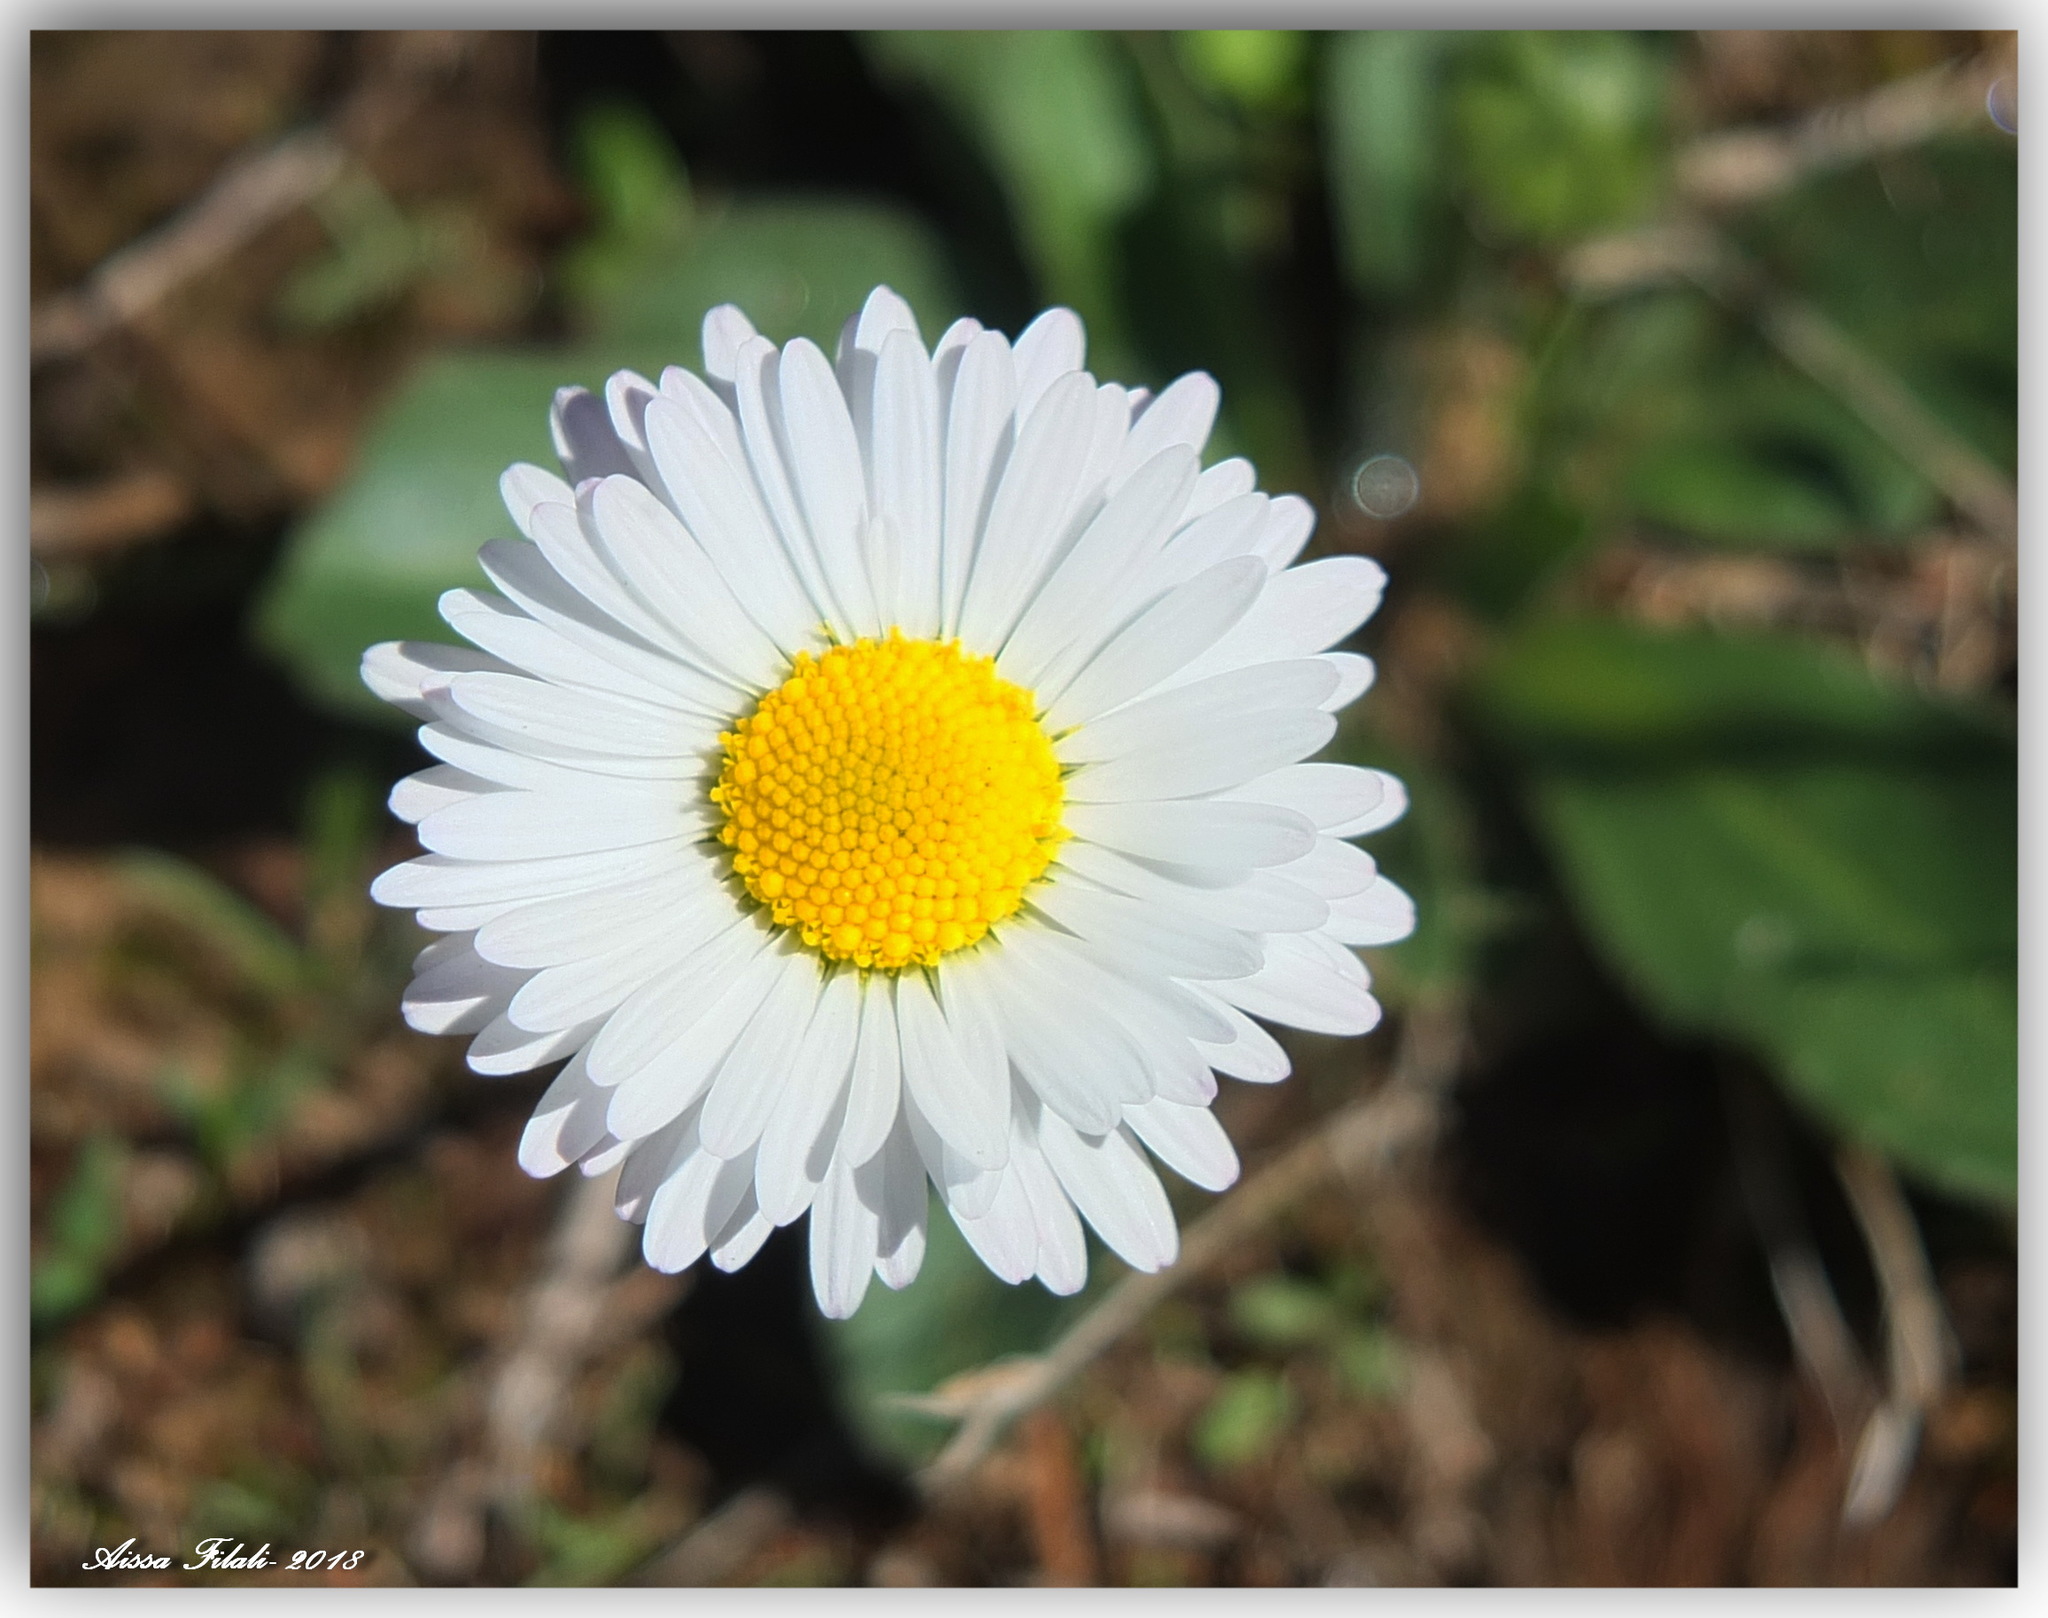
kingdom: Plantae
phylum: Tracheophyta
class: Magnoliopsida
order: Asterales
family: Asteraceae
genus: Bellis
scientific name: Bellis sylvestris
